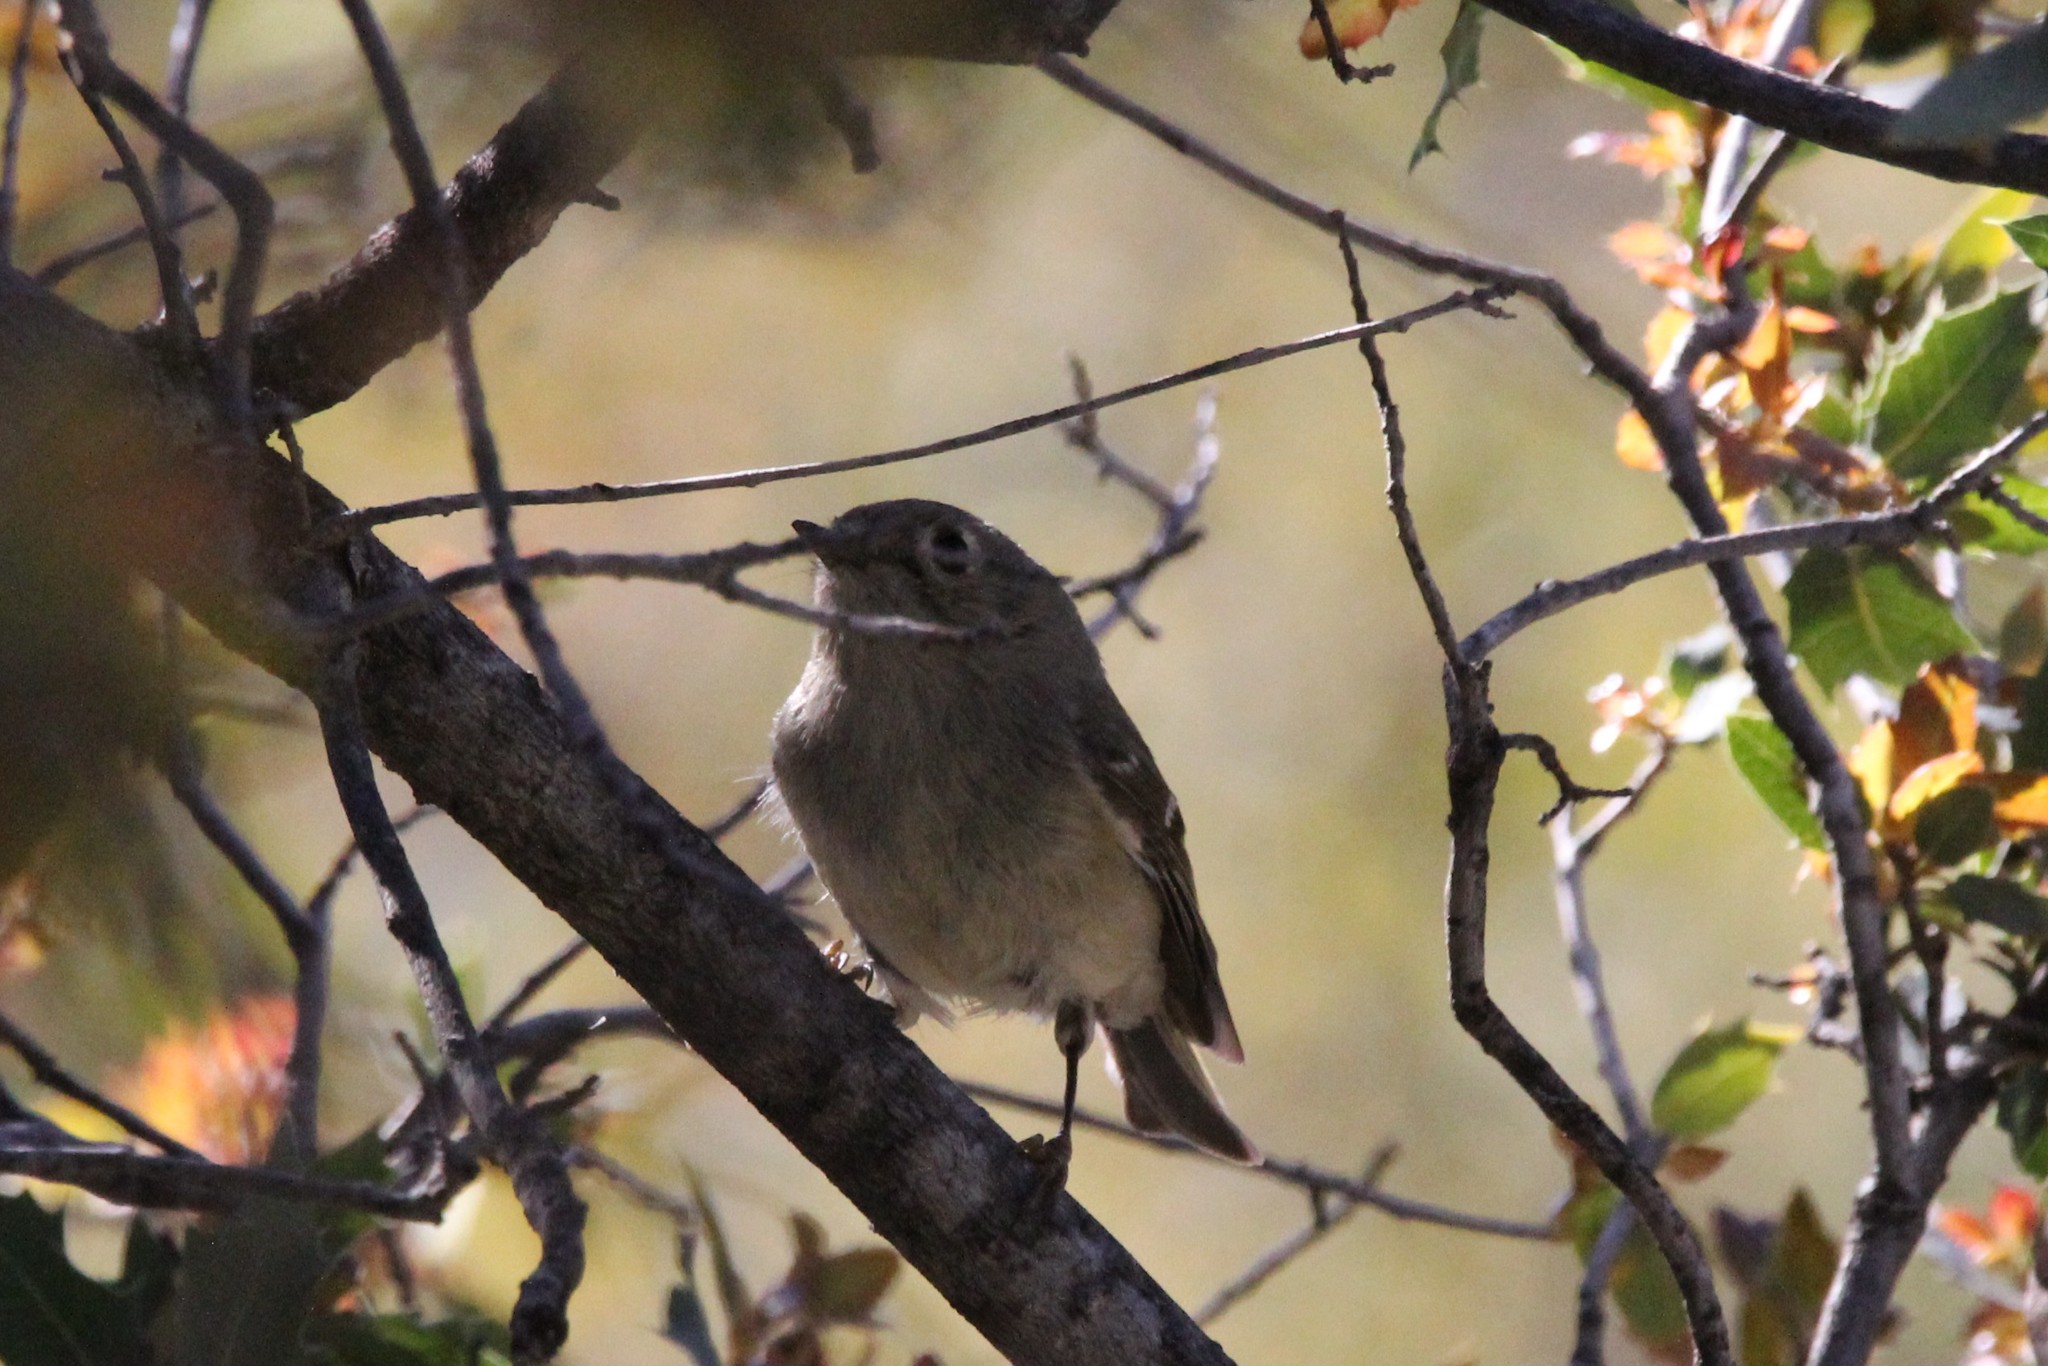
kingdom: Animalia
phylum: Chordata
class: Aves
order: Passeriformes
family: Regulidae
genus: Regulus
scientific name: Regulus calendula
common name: Ruby-crowned kinglet
